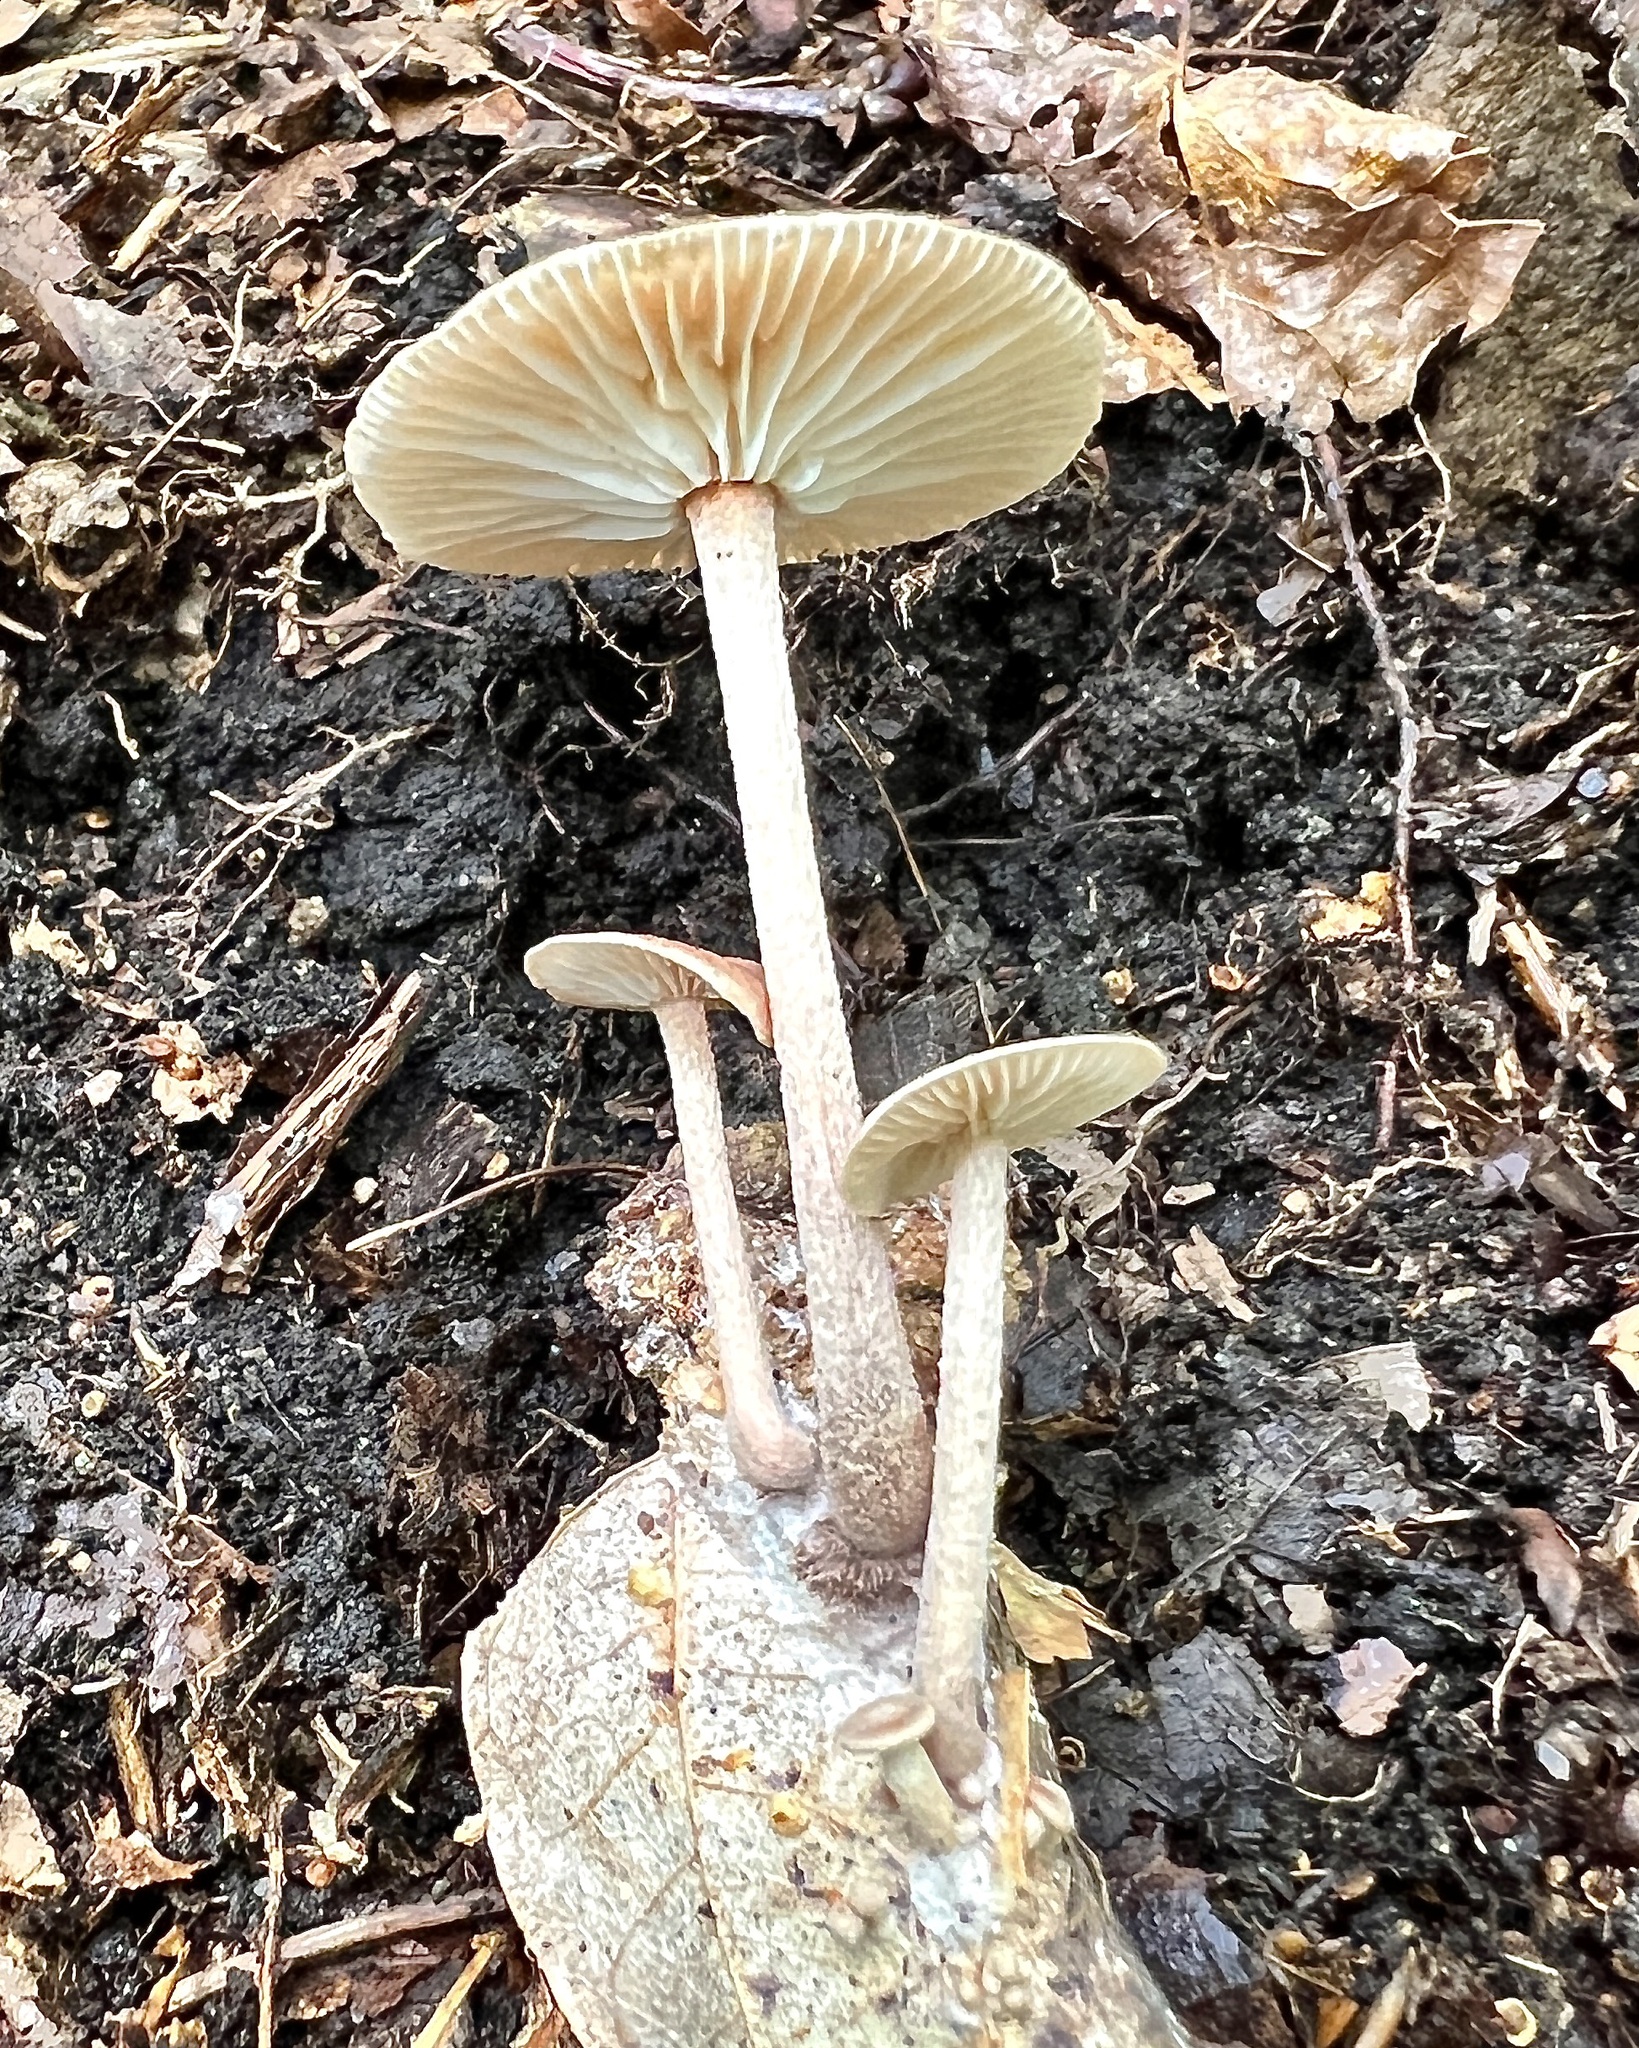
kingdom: Fungi
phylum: Basidiomycota
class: Agaricomycetes
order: Agaricales
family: Omphalotaceae
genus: Collybiopsis
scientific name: Collybiopsis subnuda
